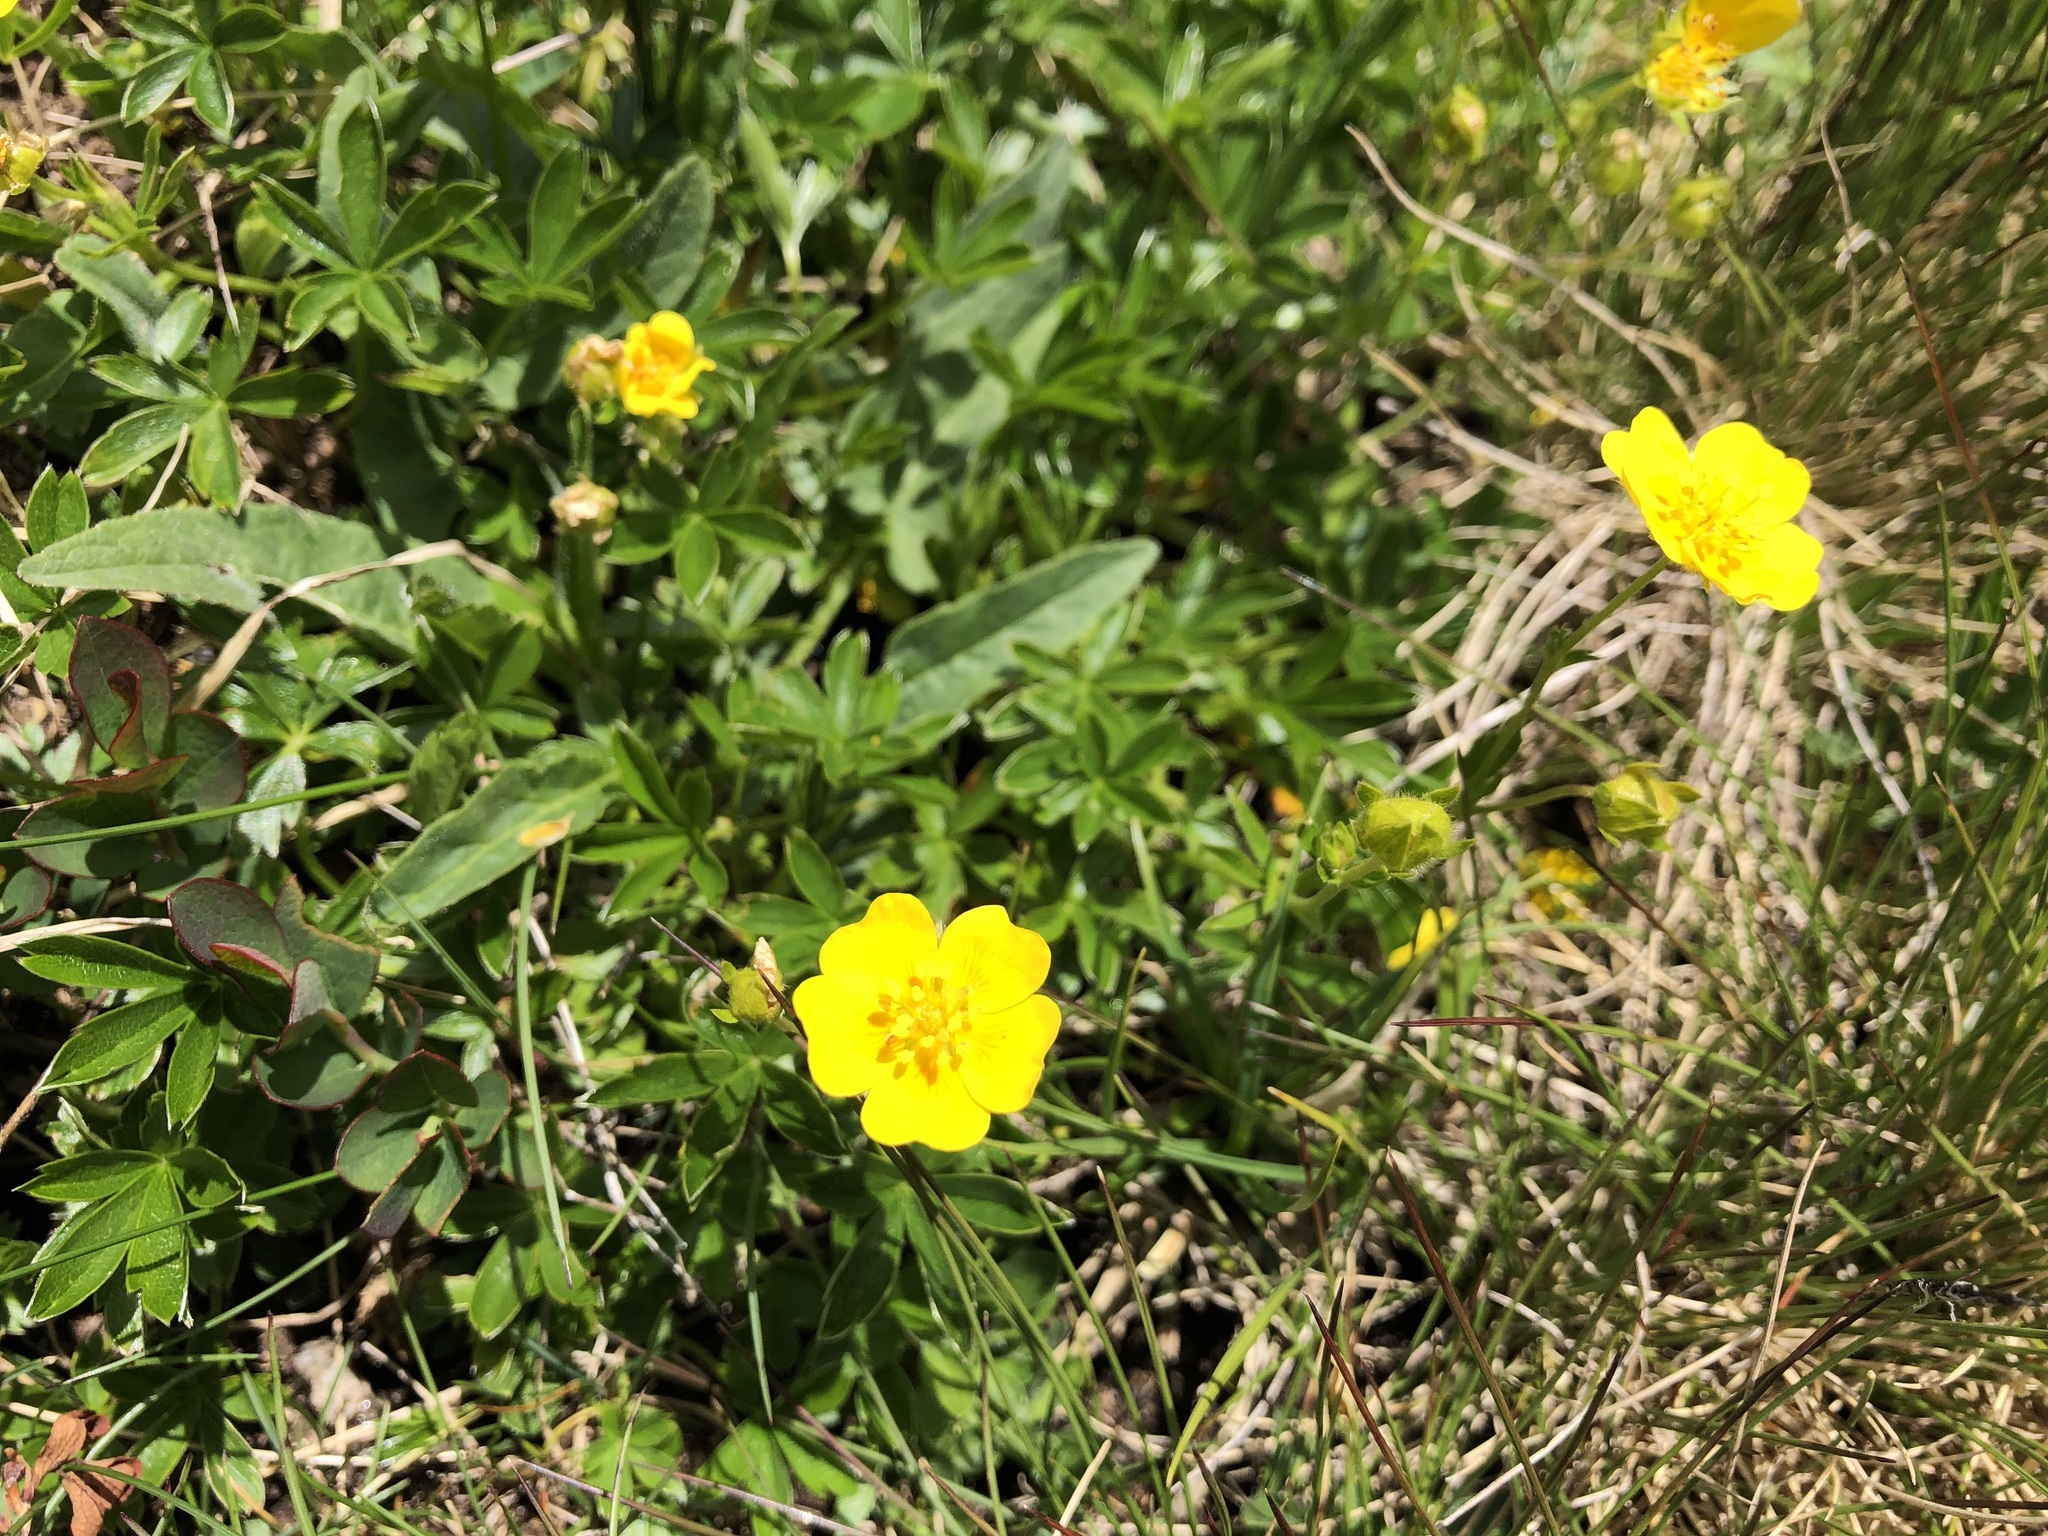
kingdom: Plantae
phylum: Tracheophyta
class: Magnoliopsida
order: Rosales
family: Rosaceae
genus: Potentilla
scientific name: Potentilla aurea
